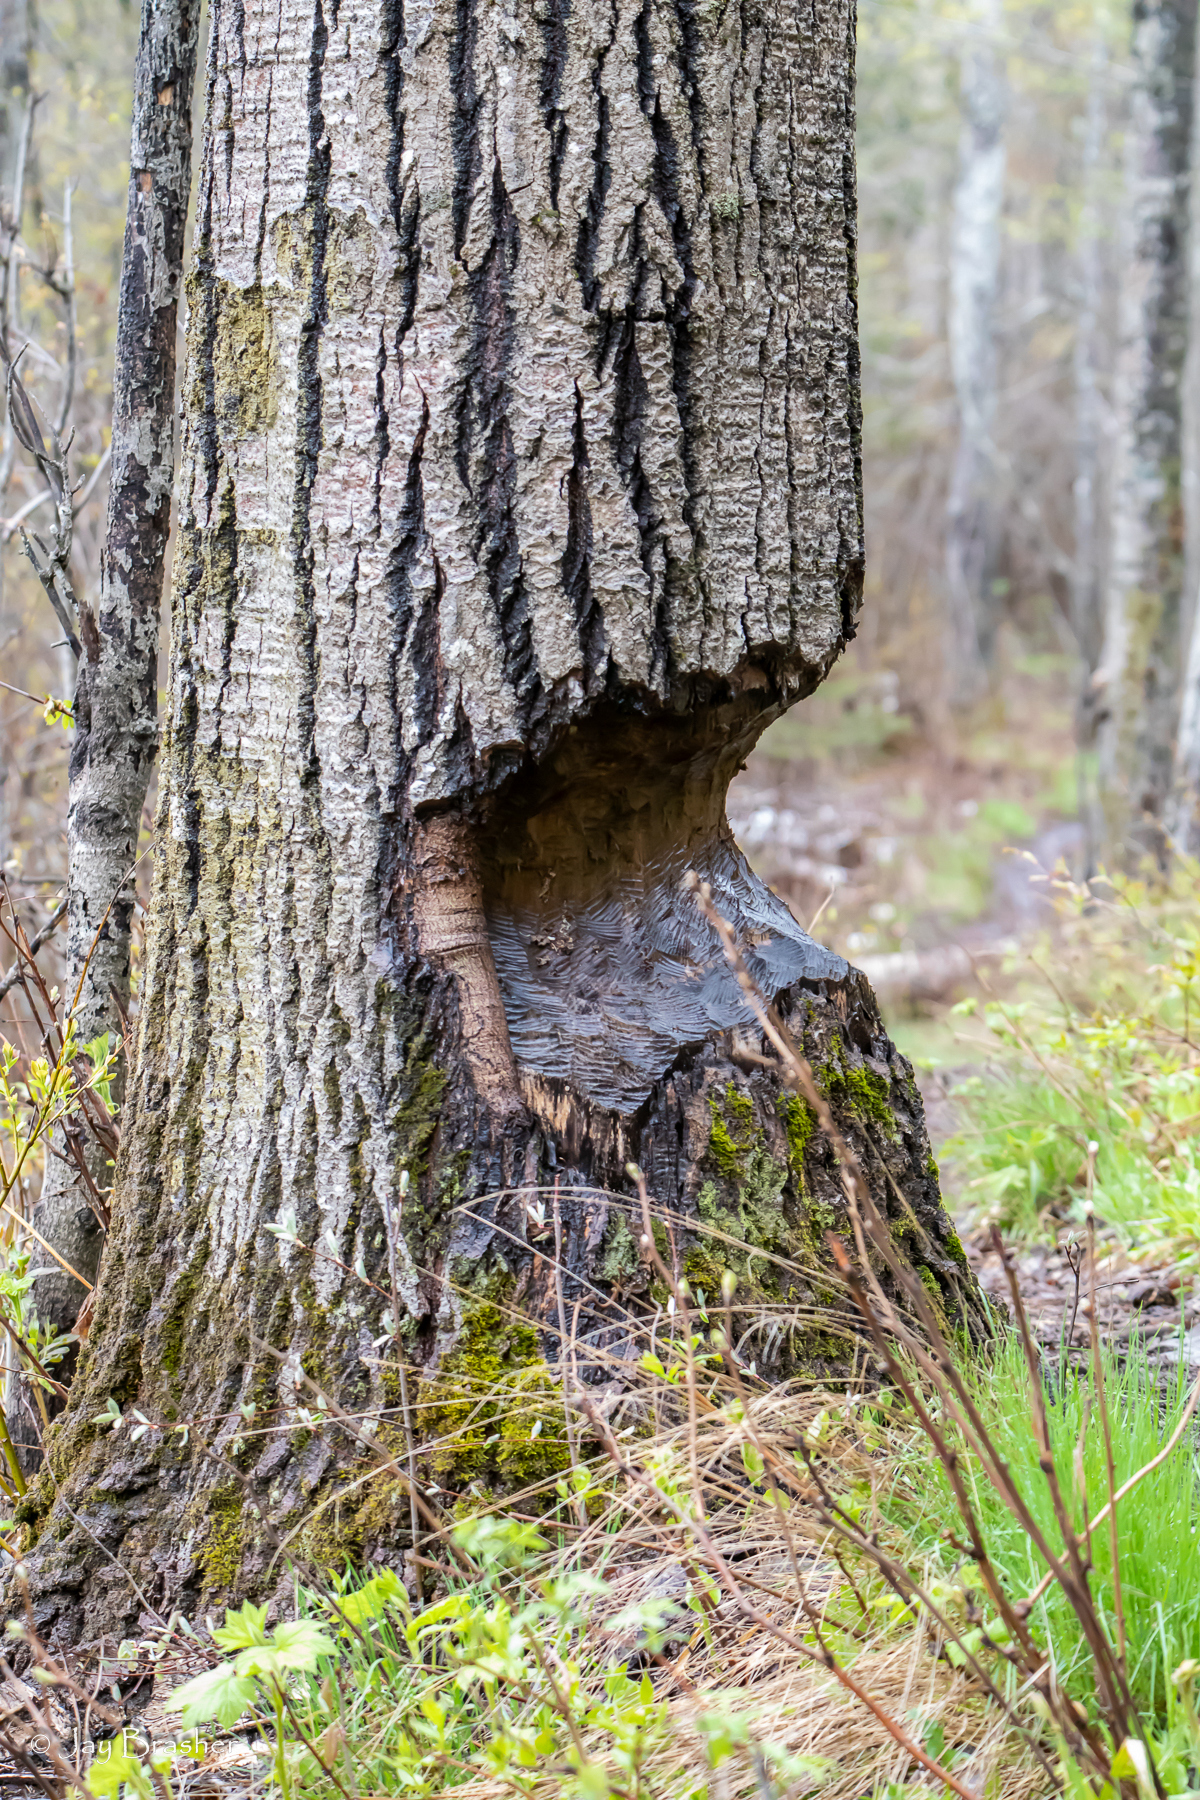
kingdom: Animalia
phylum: Chordata
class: Mammalia
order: Rodentia
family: Castoridae
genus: Castor
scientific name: Castor canadensis
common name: American beaver
